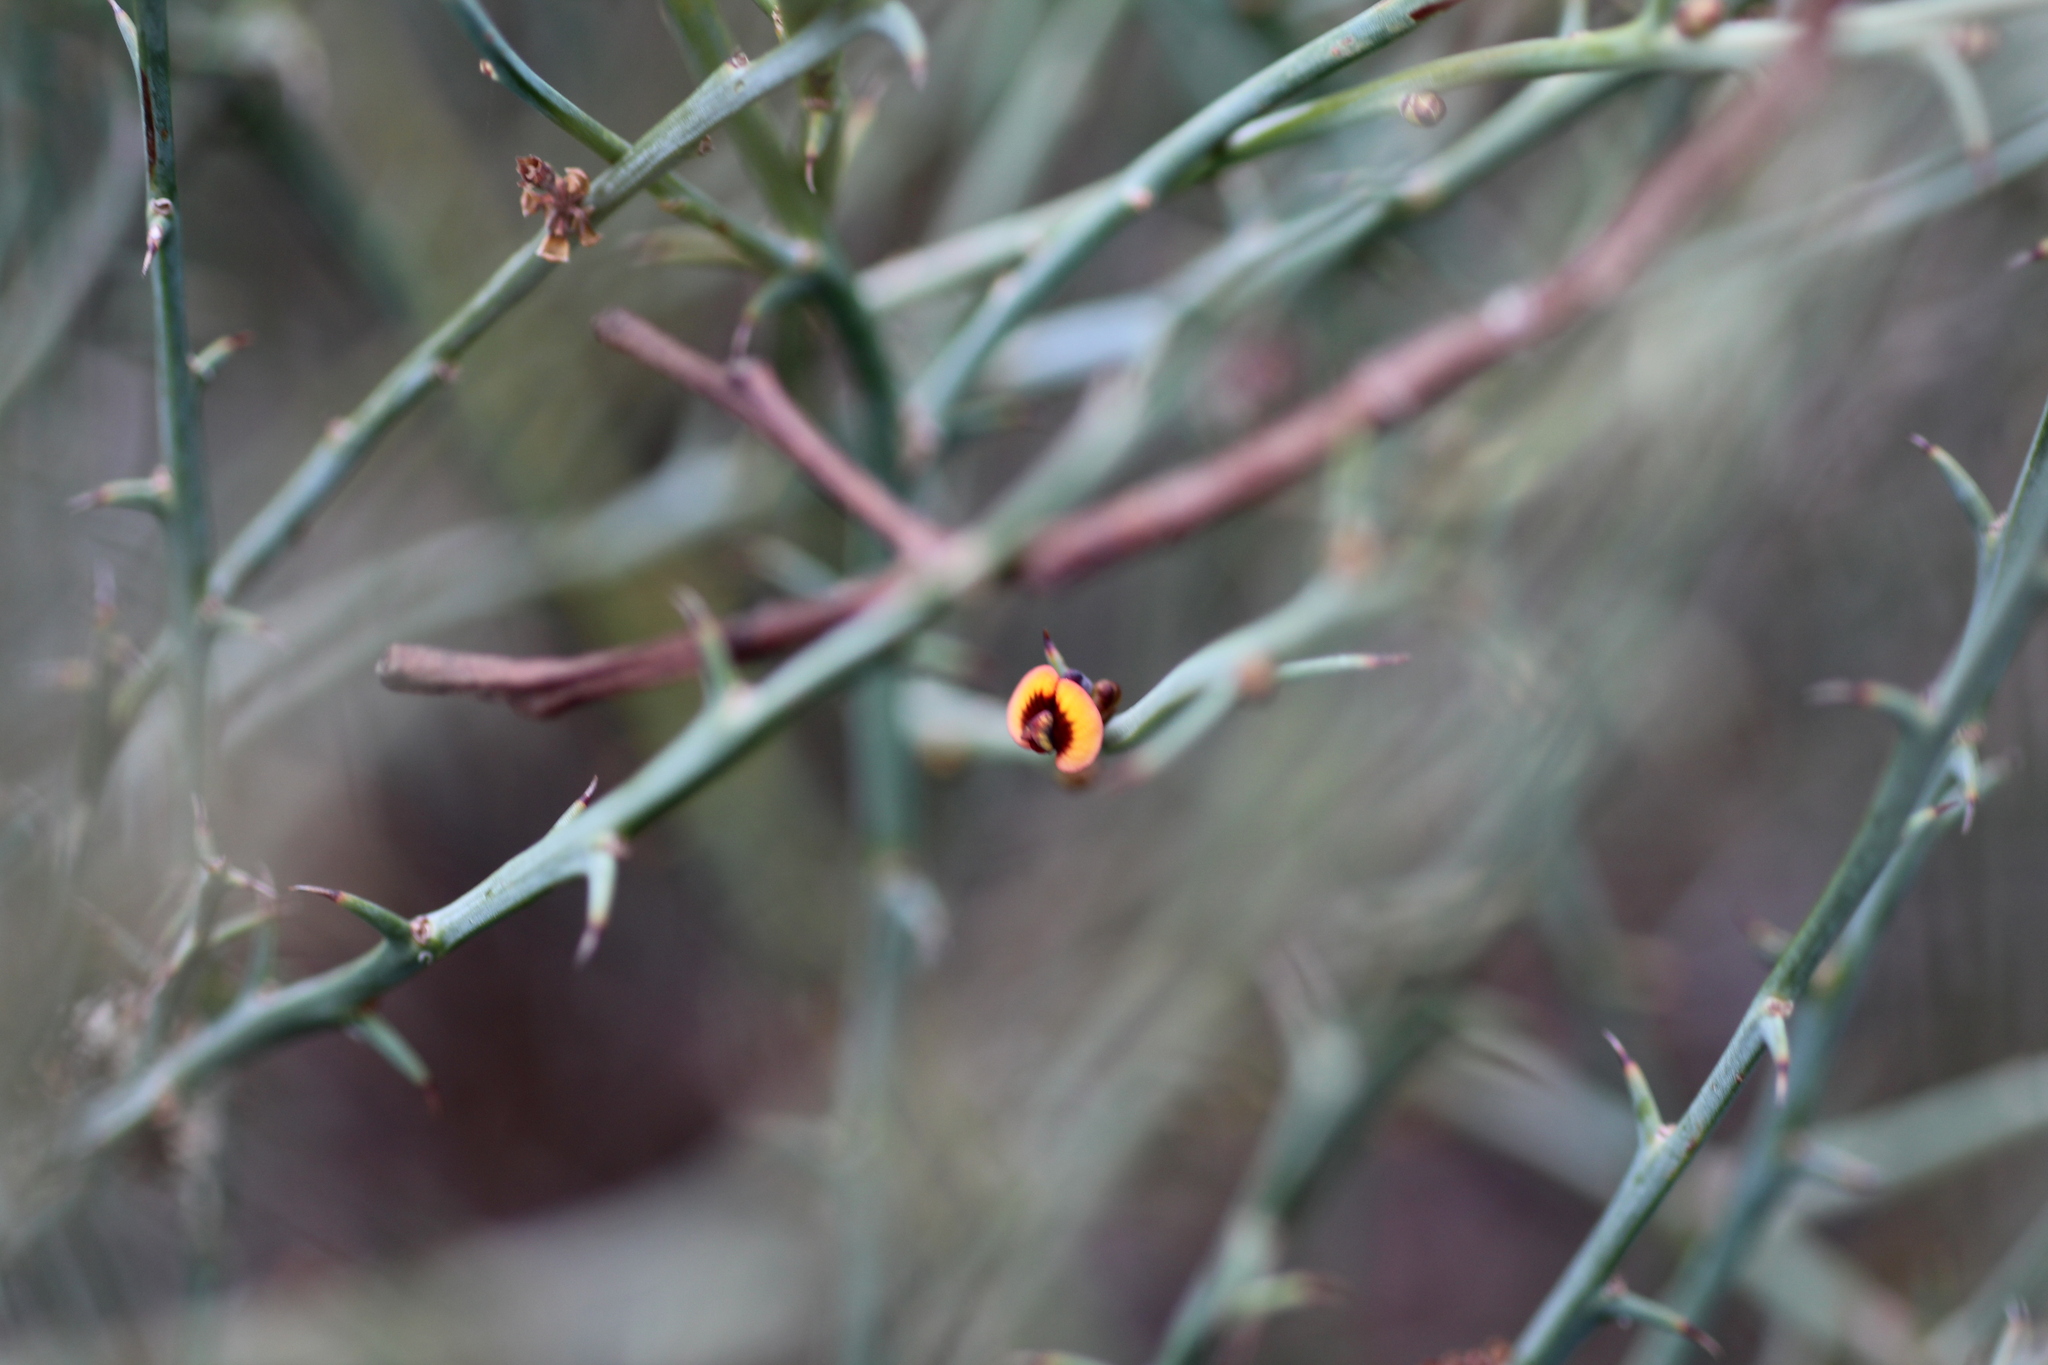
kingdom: Plantae
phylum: Tracheophyta
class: Magnoliopsida
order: Fabales
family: Fabaceae
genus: Daviesia
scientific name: Daviesia decurrens
